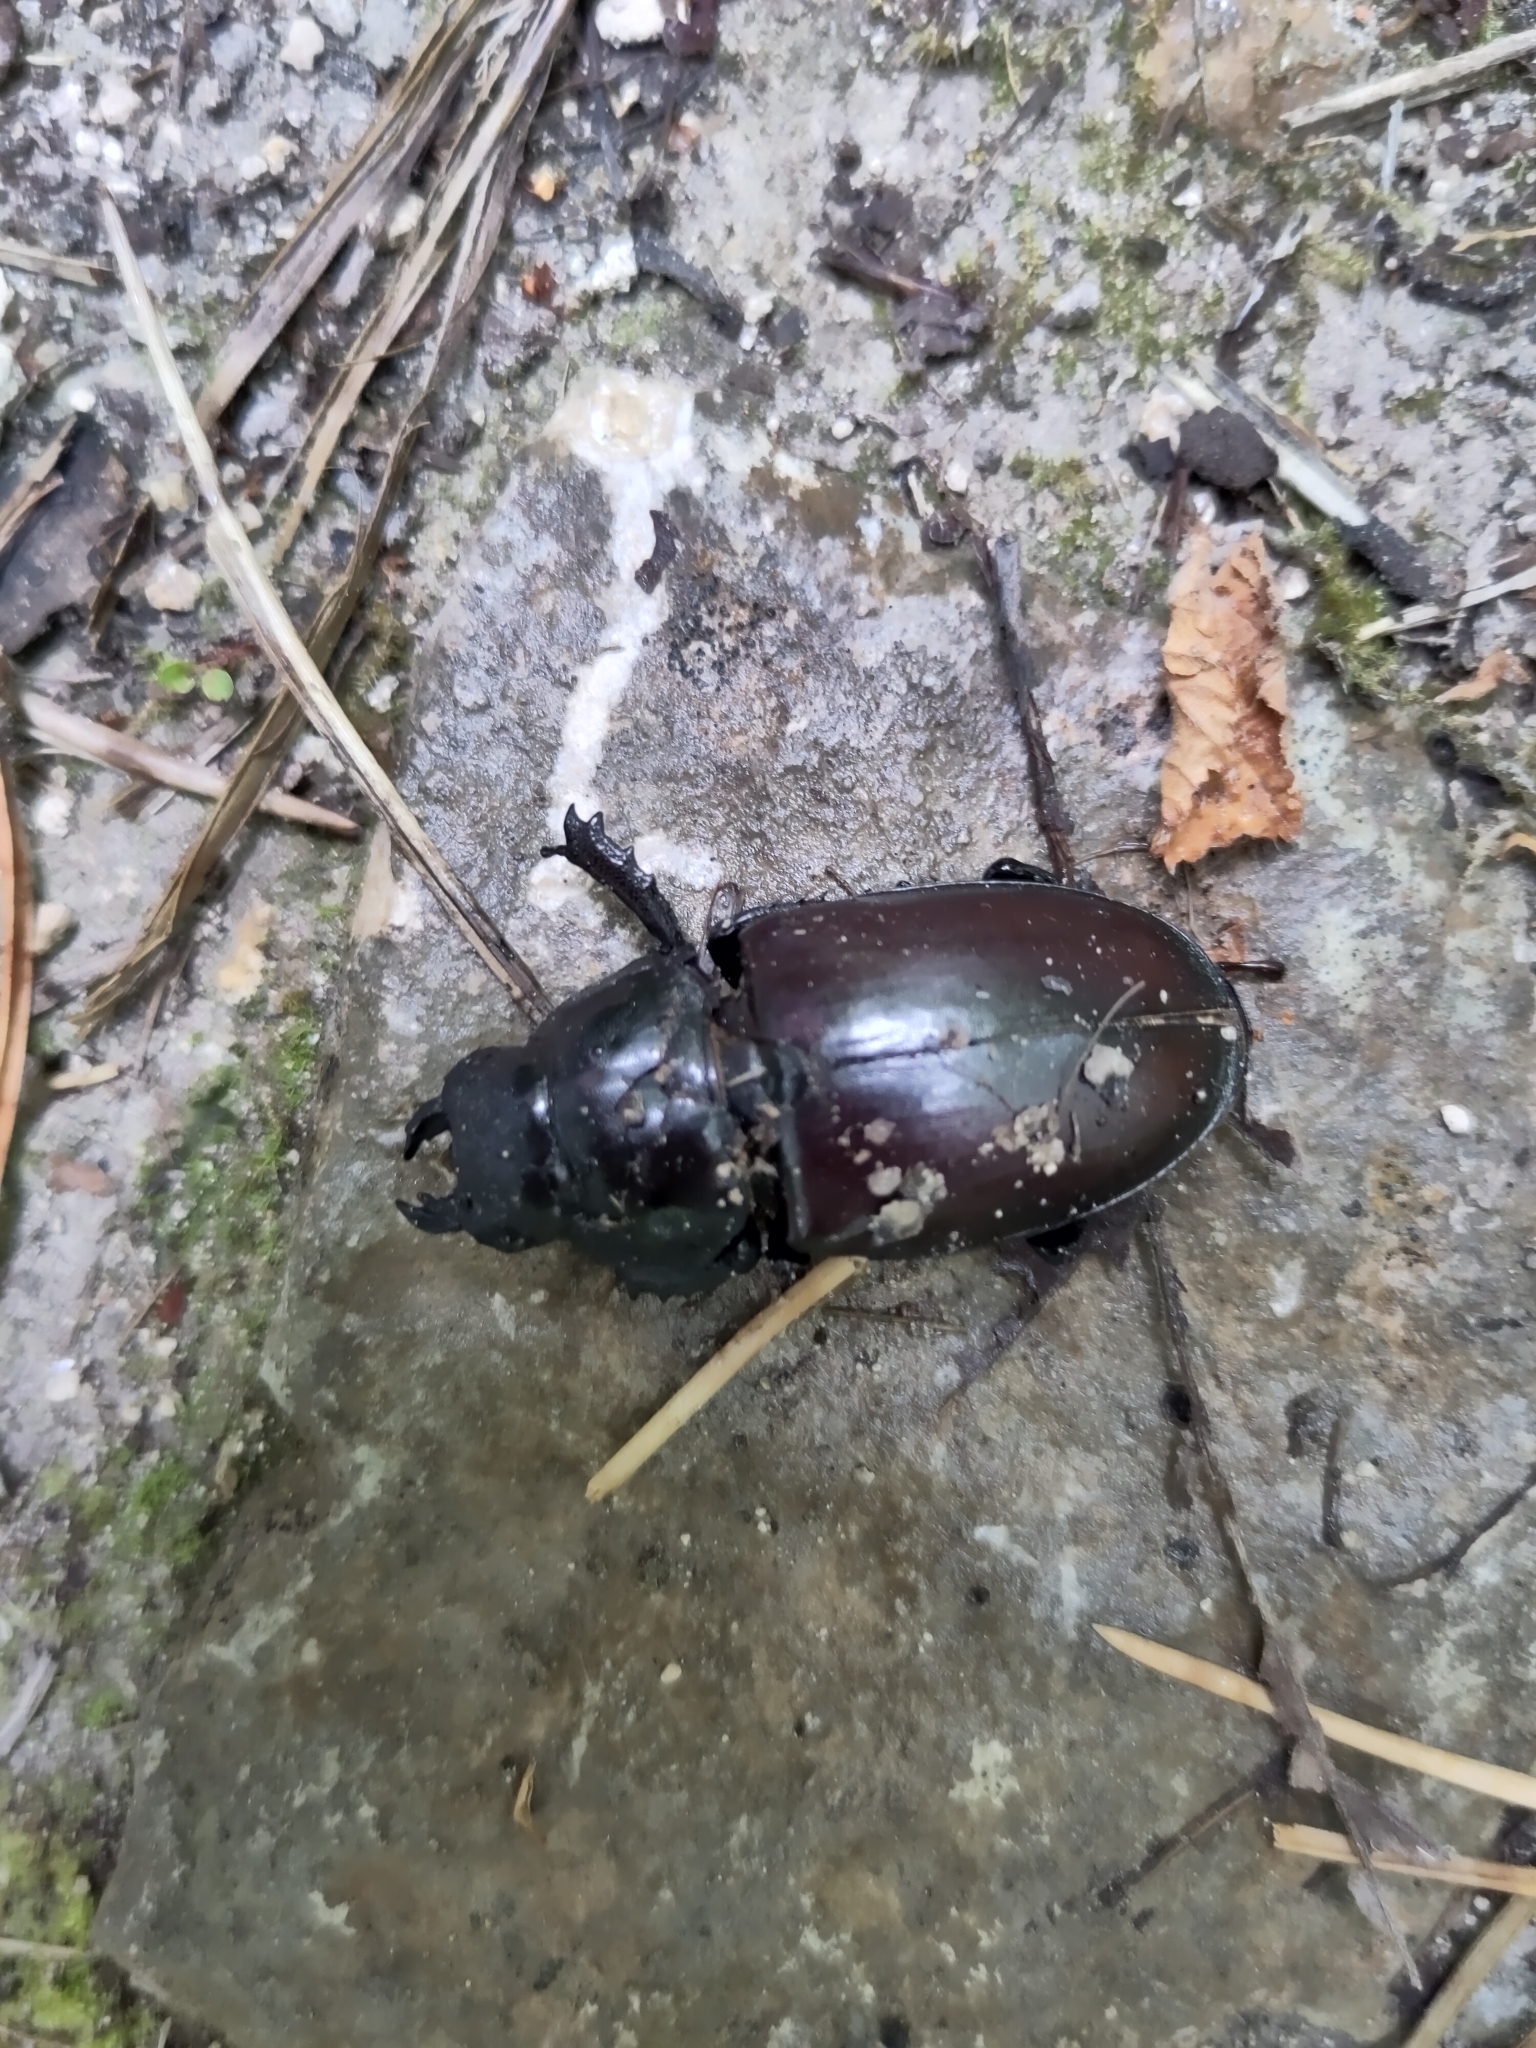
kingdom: Animalia
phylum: Arthropoda
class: Insecta
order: Coleoptera
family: Lucanidae
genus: Lucanus
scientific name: Lucanus cervus
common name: Stag beetle
